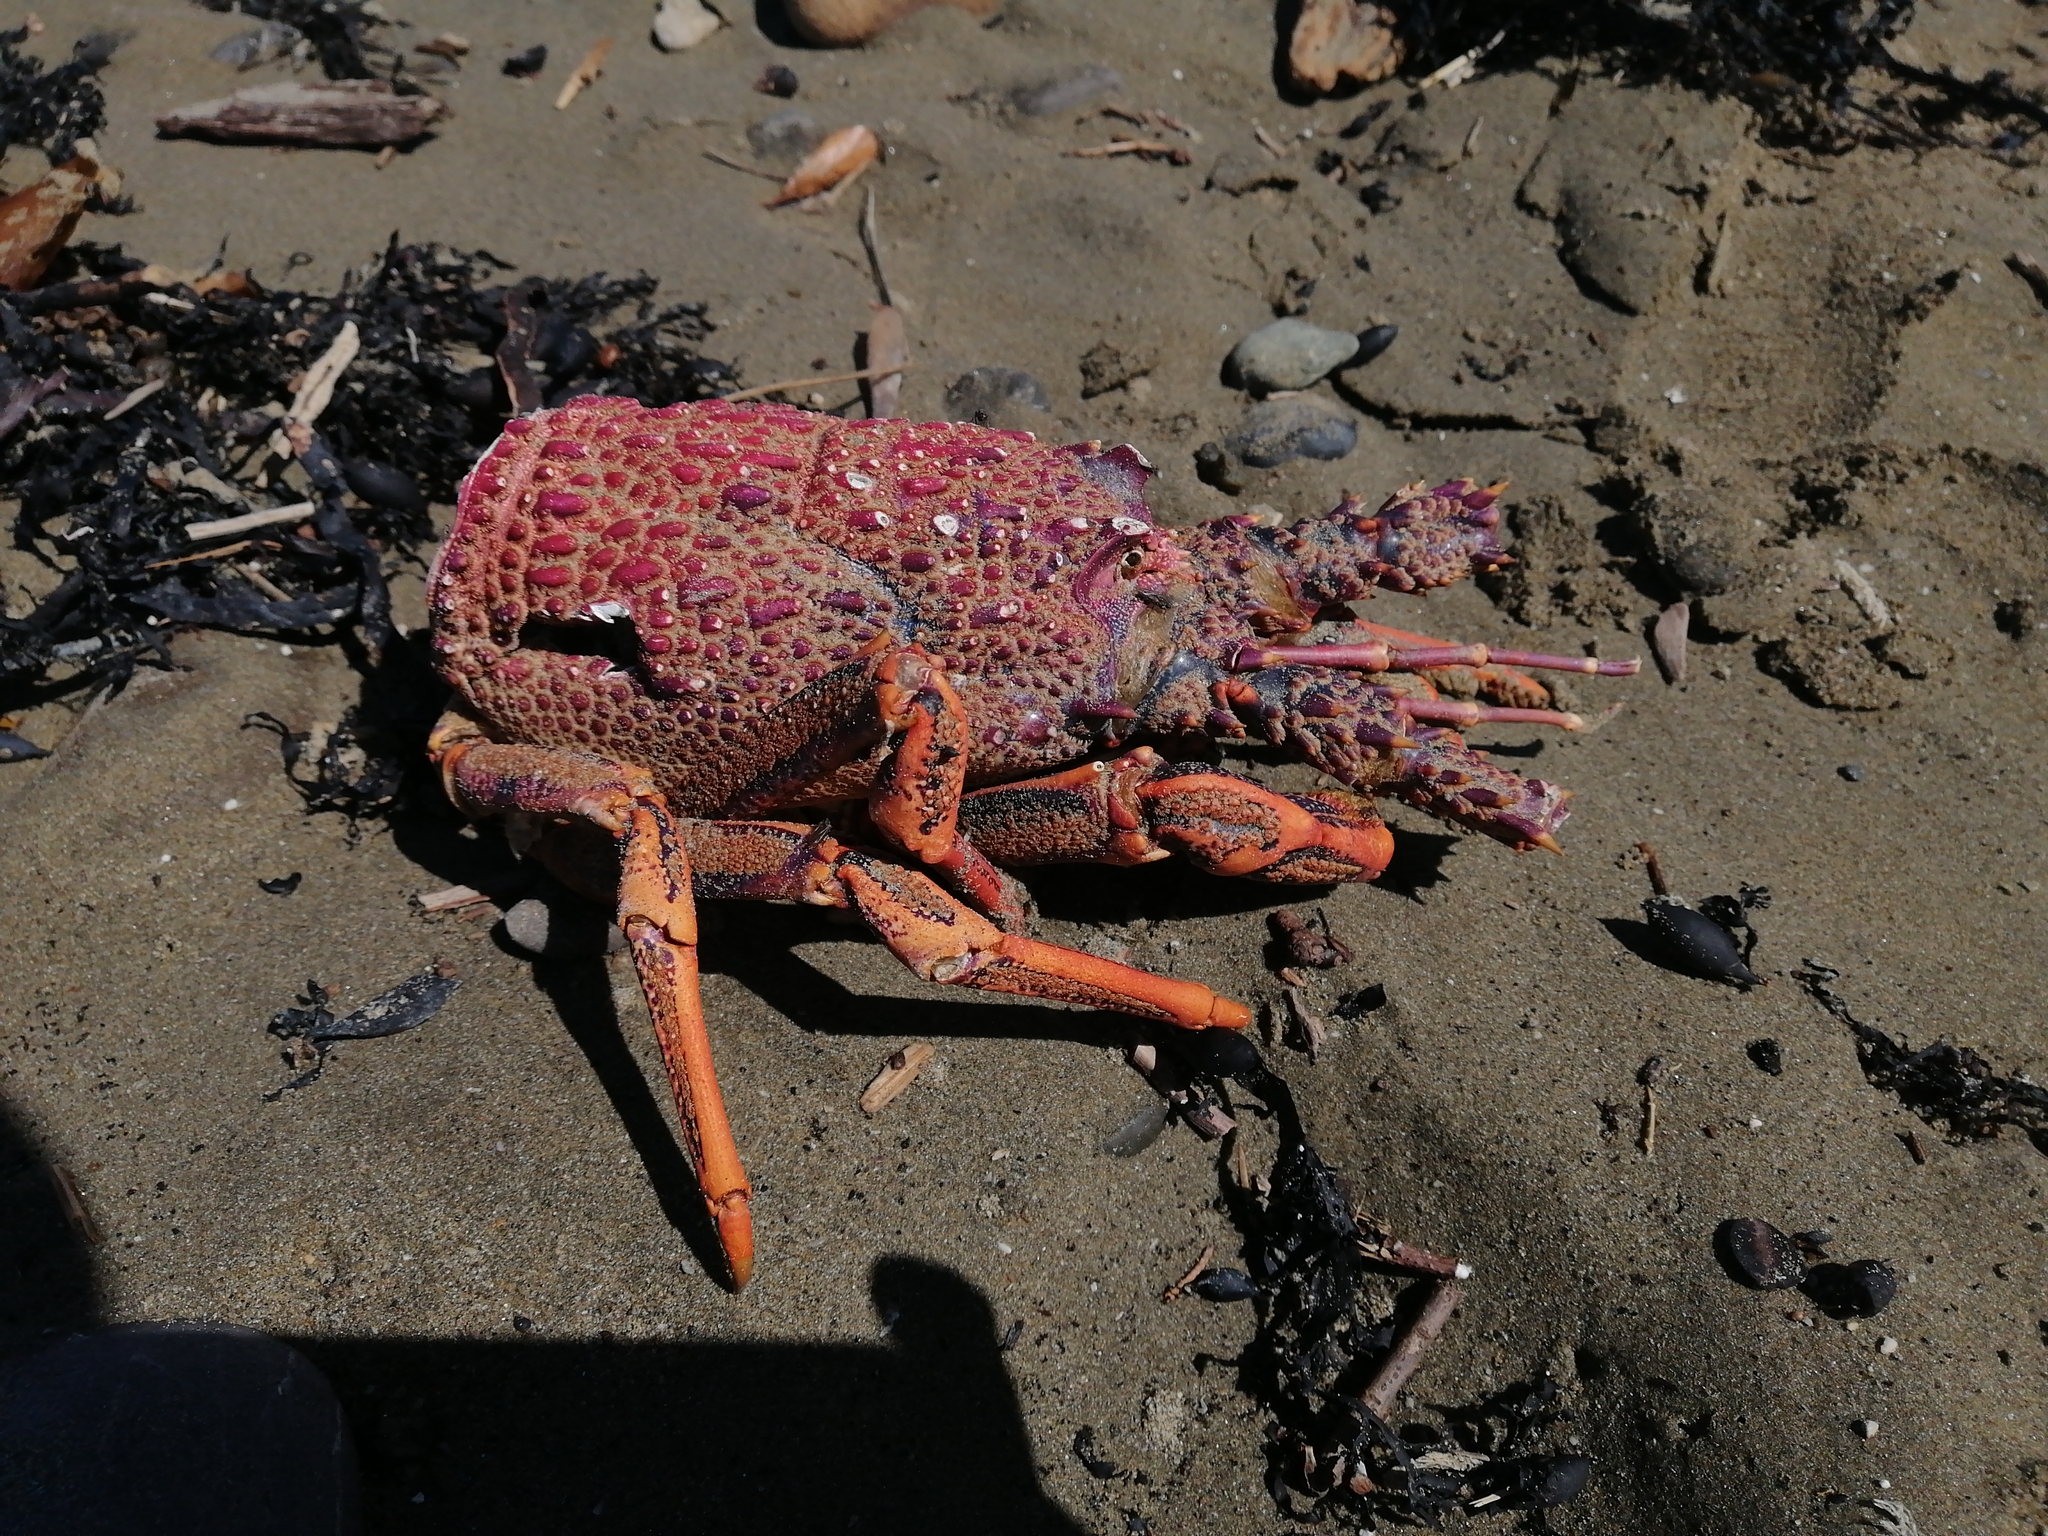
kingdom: Animalia
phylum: Arthropoda
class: Malacostraca
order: Decapoda
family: Palinuridae
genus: Jasus
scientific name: Jasus edwardsii
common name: Red rock lobster
